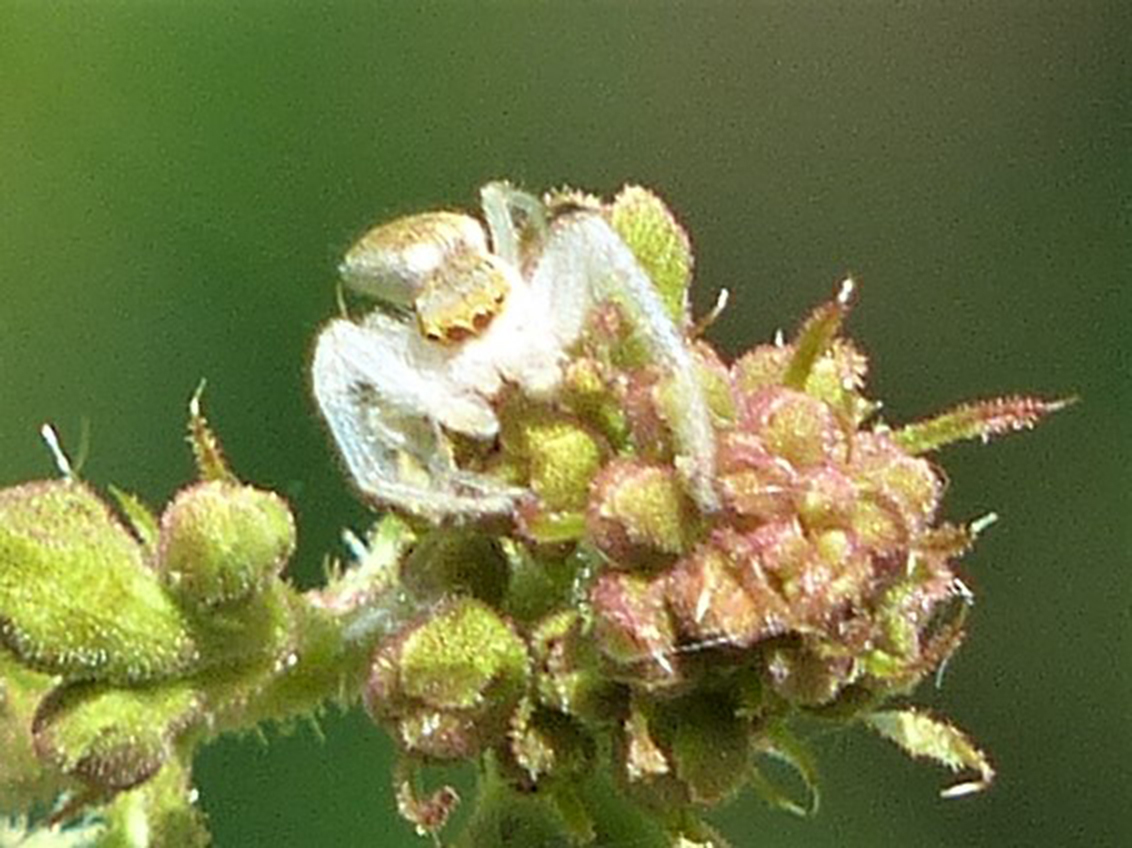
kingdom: Animalia
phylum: Arthropoda
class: Arachnida
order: Araneae
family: Salticidae
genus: Hentzia
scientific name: Hentzia mitrata
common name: White-jawed jumping spider
